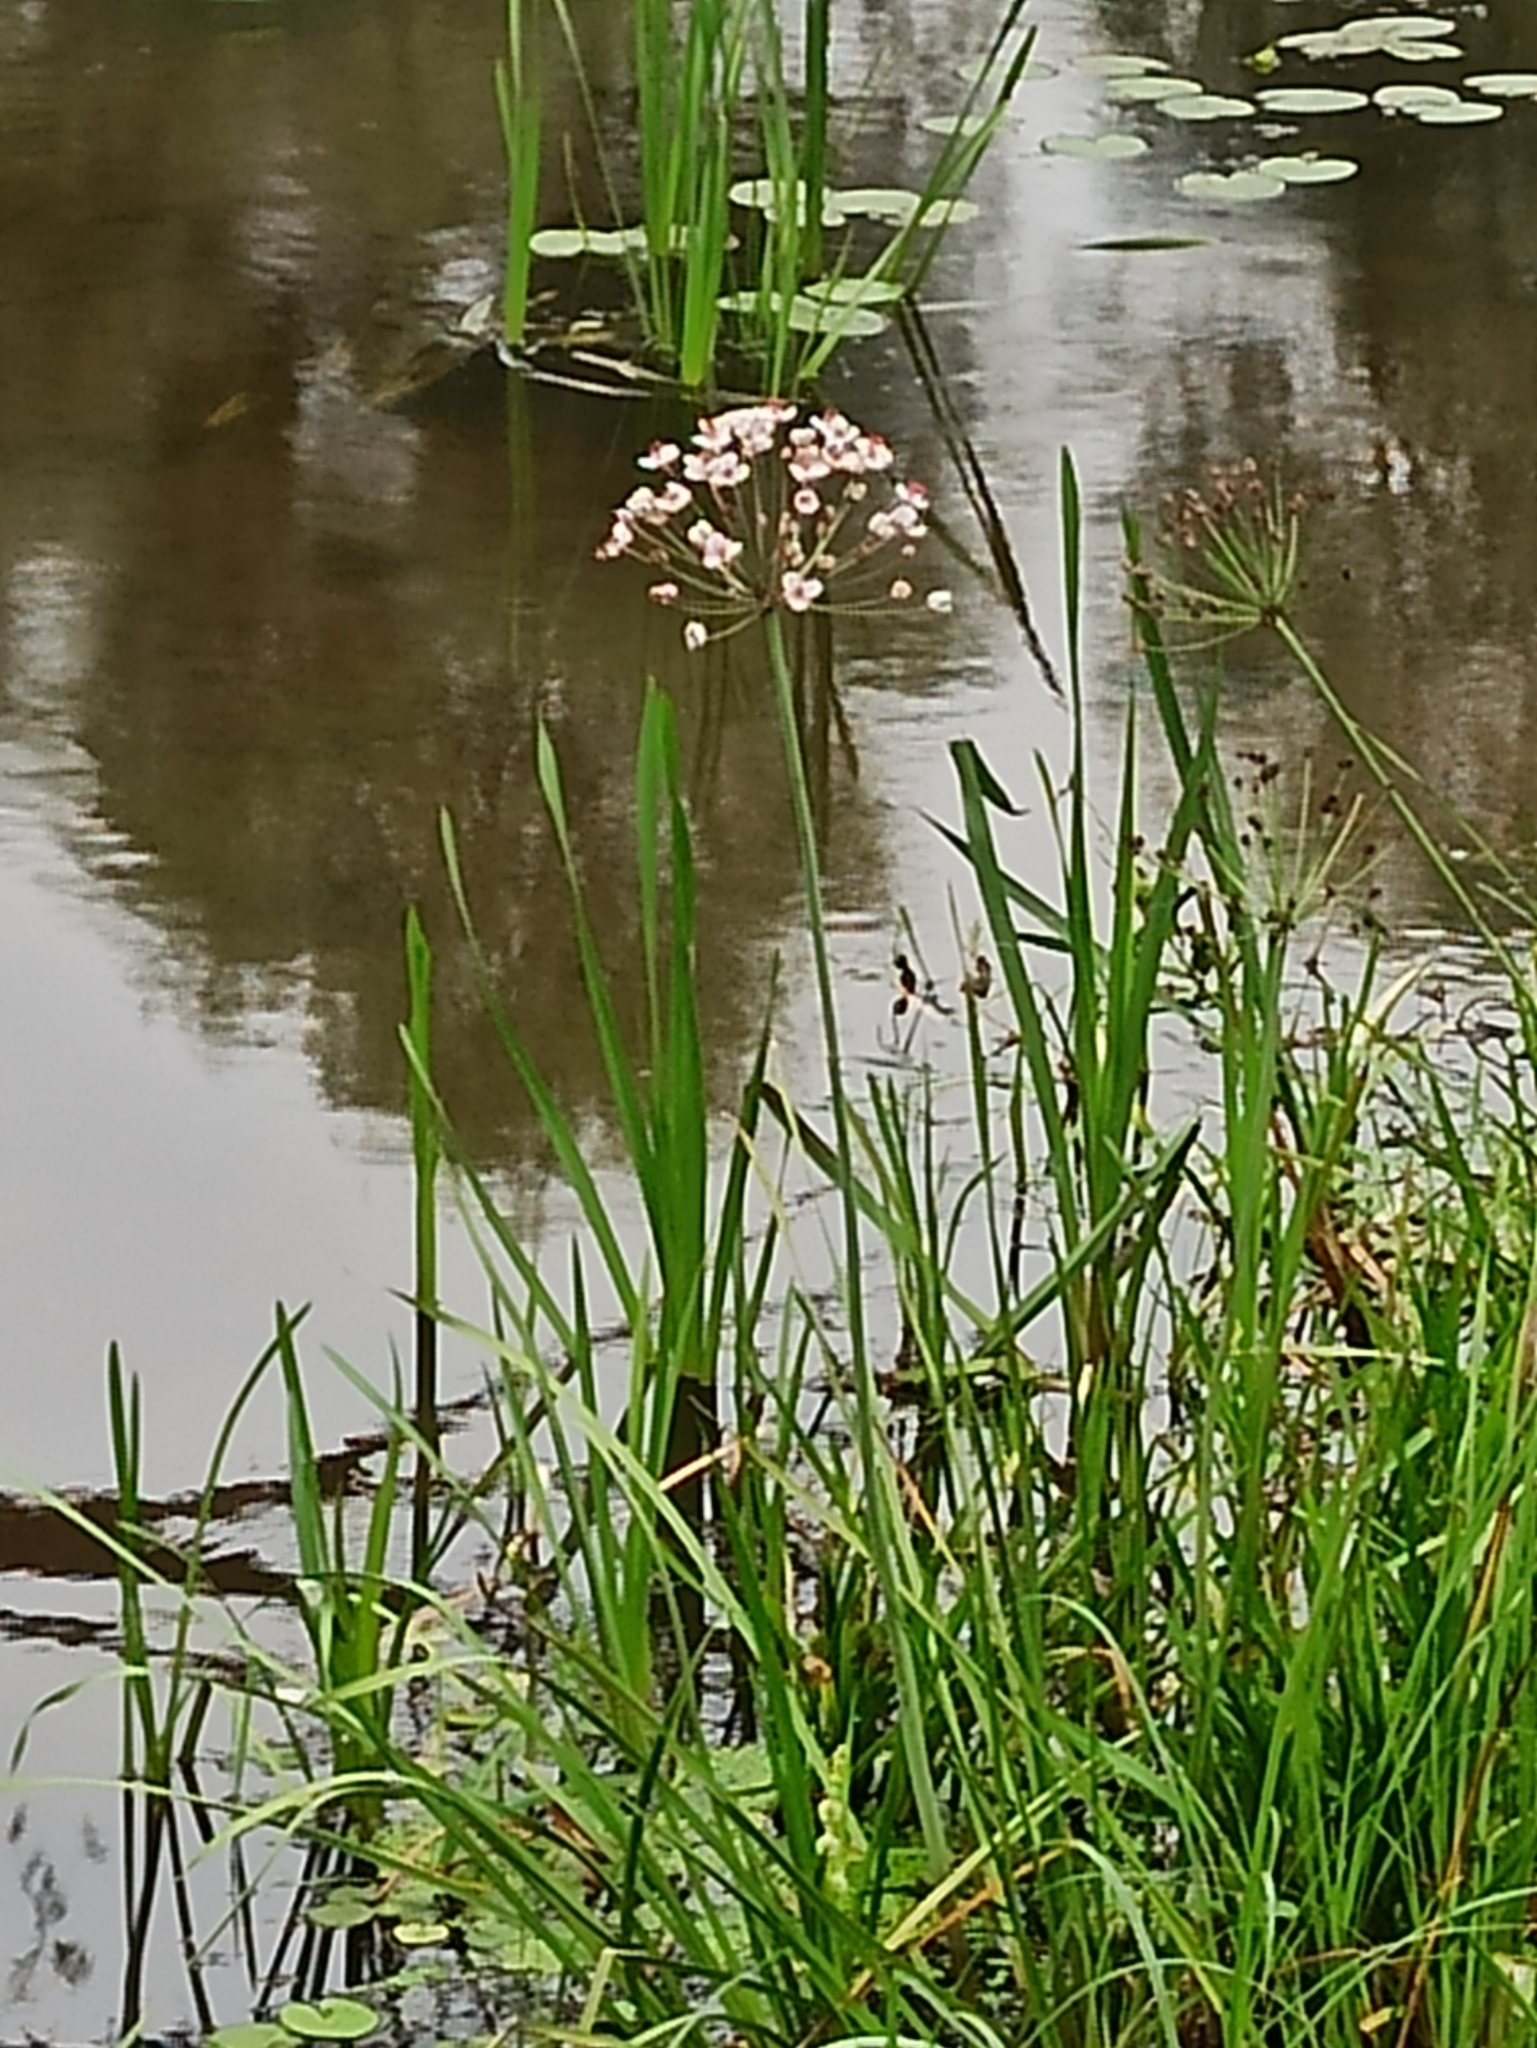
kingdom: Plantae
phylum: Tracheophyta
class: Liliopsida
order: Alismatales
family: Butomaceae
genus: Butomus
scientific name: Butomus umbellatus
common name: Flowering-rush
